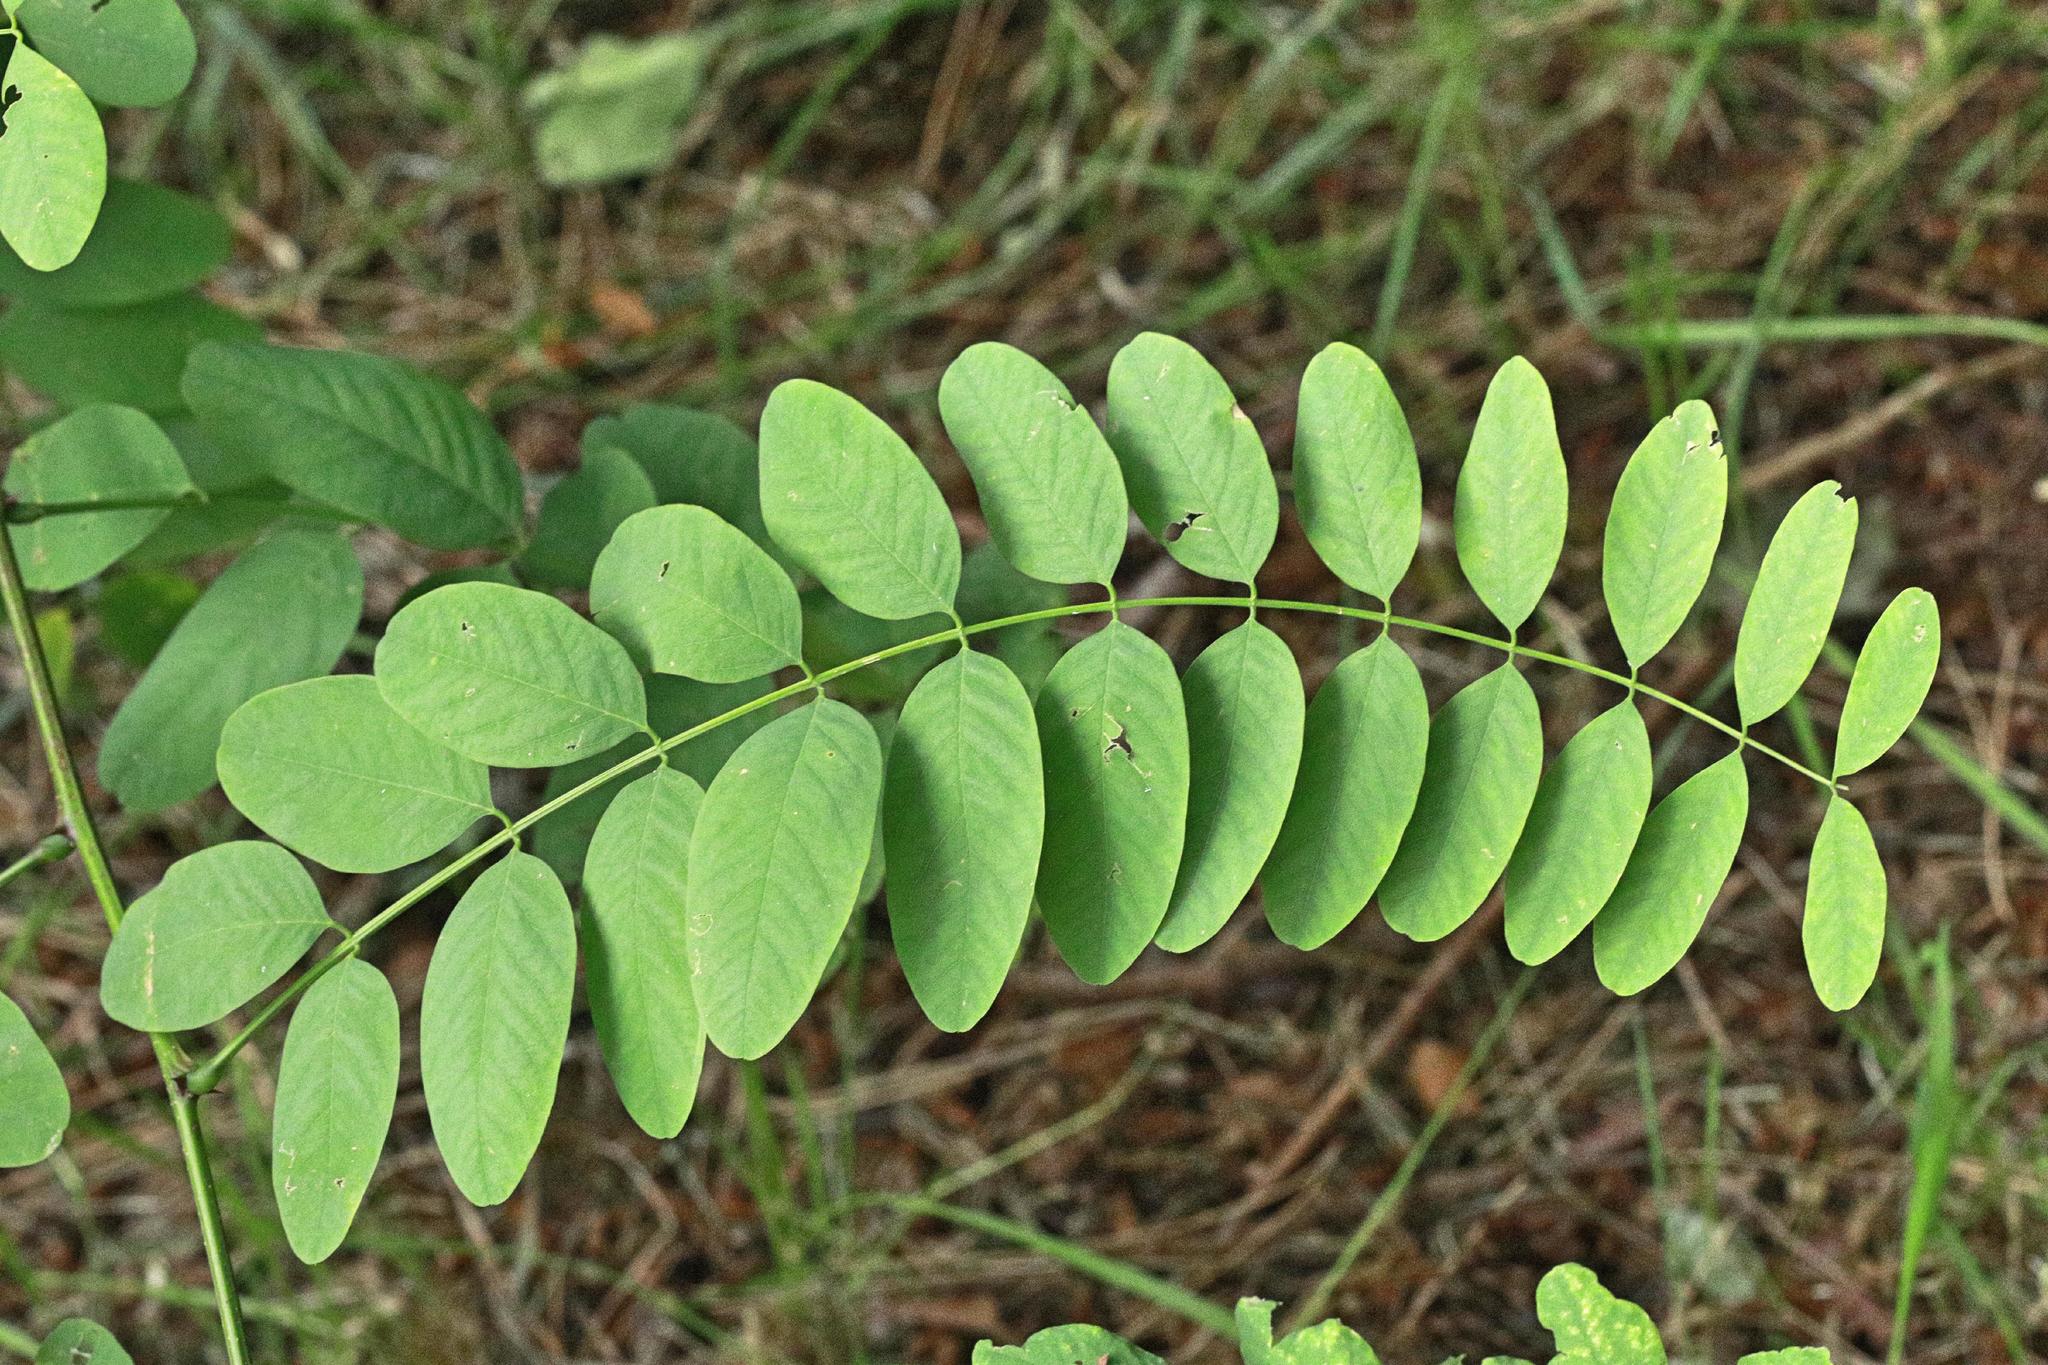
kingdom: Plantae
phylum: Tracheophyta
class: Magnoliopsida
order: Fabales
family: Fabaceae
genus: Robinia
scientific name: Robinia pseudoacacia
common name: Black locust
